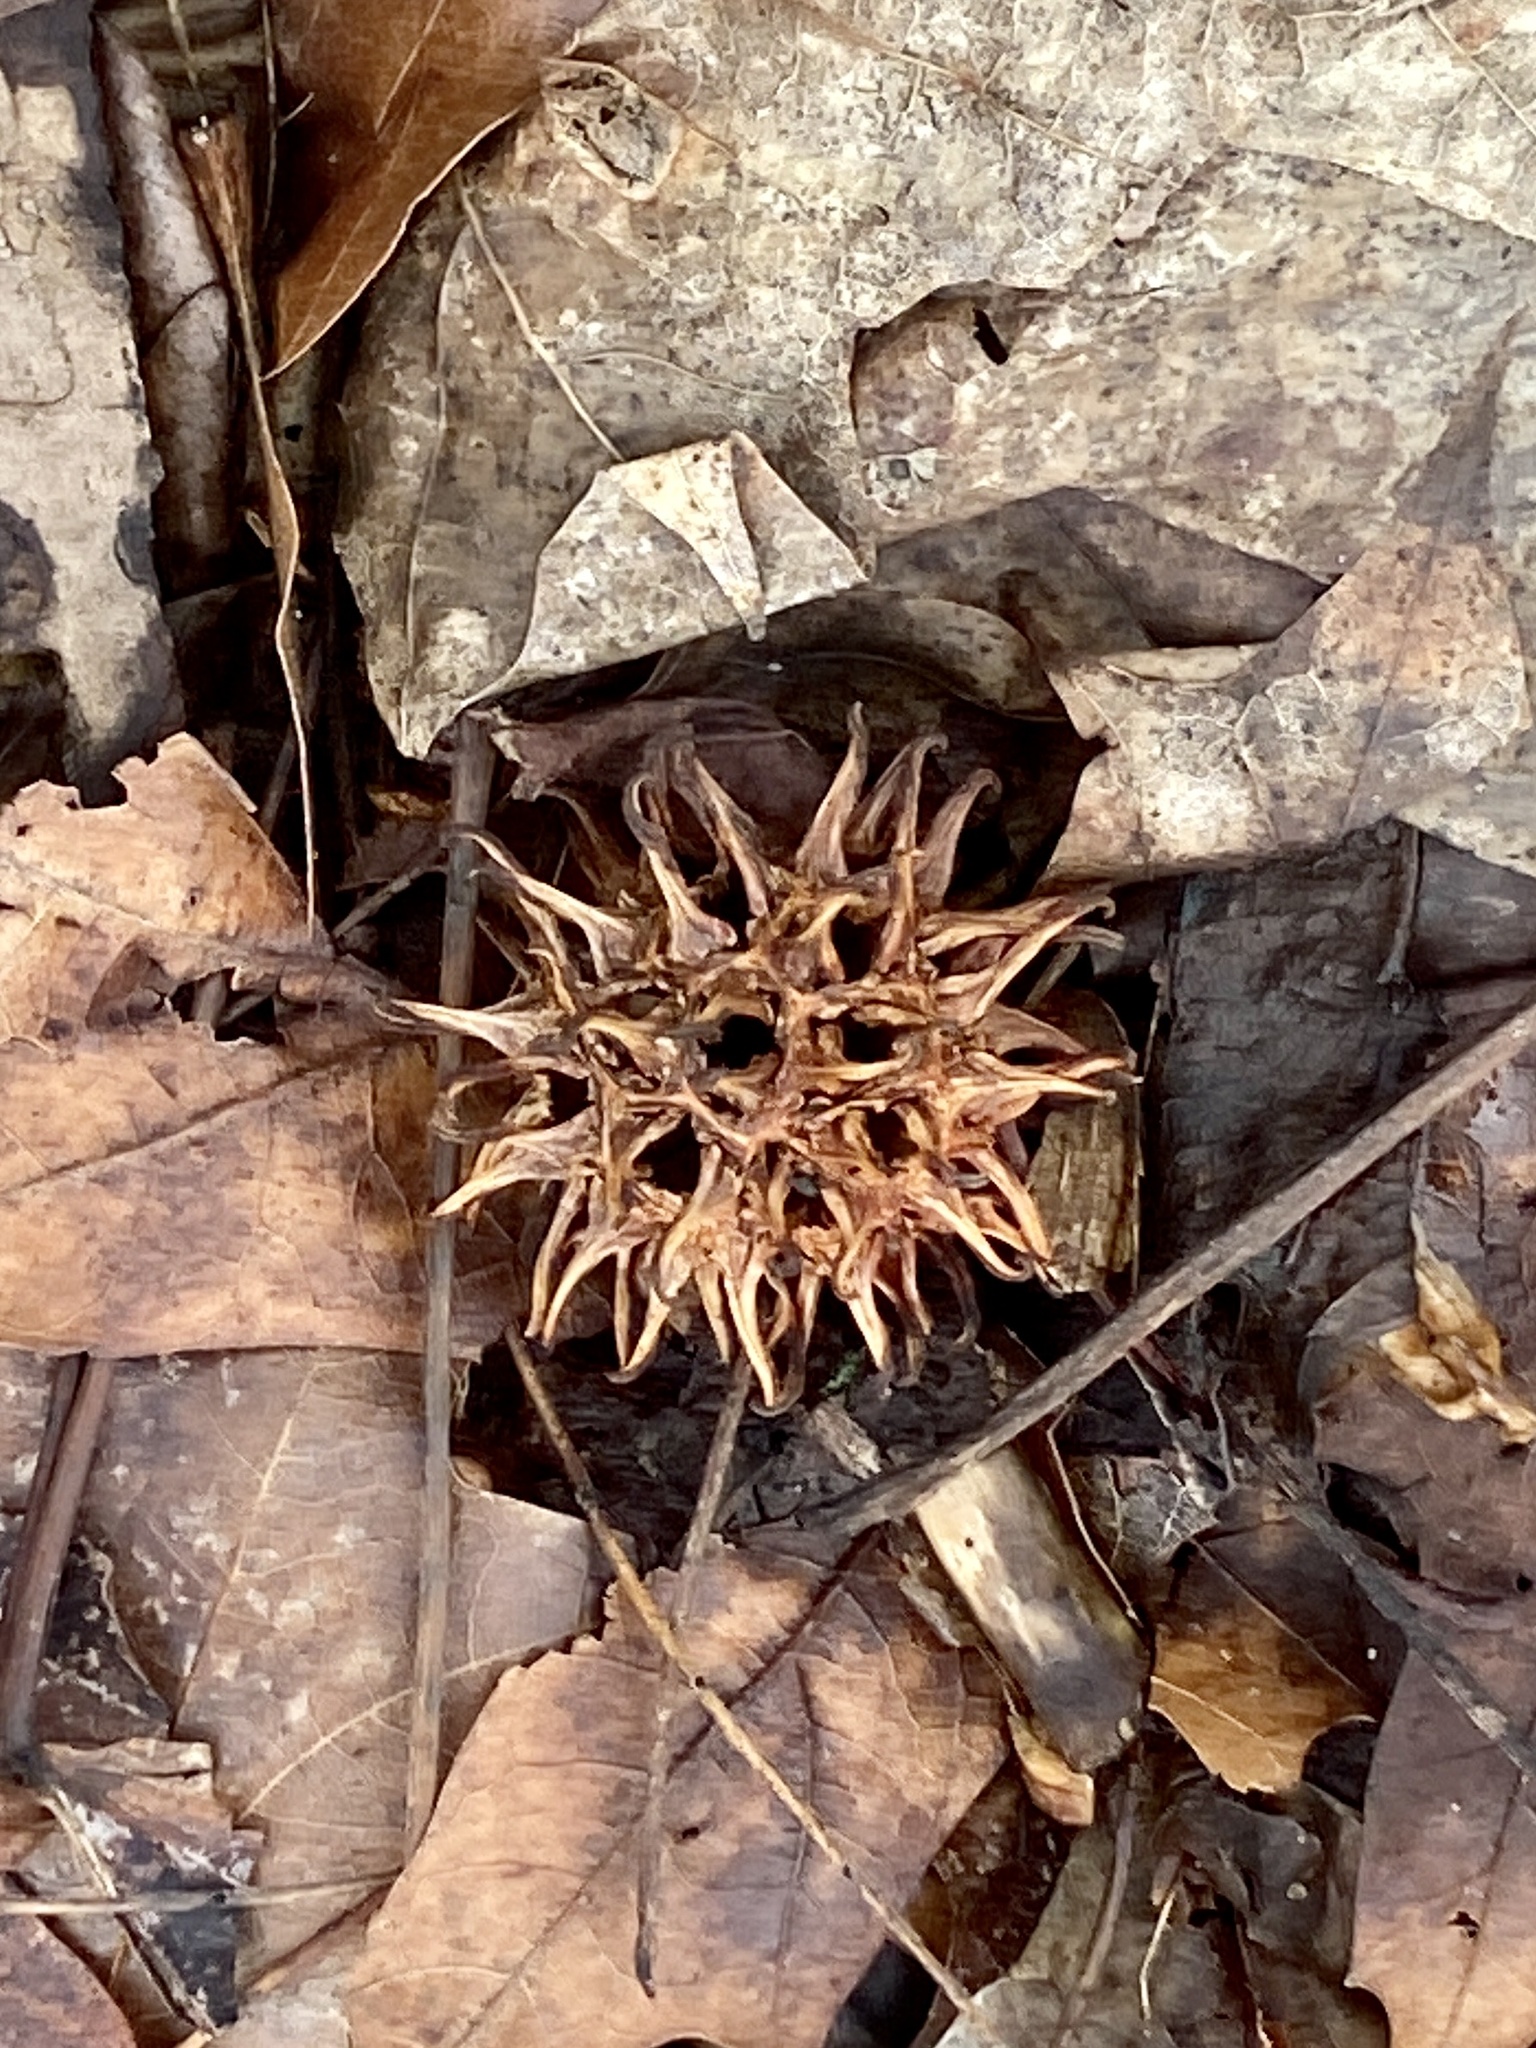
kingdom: Plantae
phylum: Tracheophyta
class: Magnoliopsida
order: Saxifragales
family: Altingiaceae
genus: Liquidambar
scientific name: Liquidambar styraciflua
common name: Sweet gum
